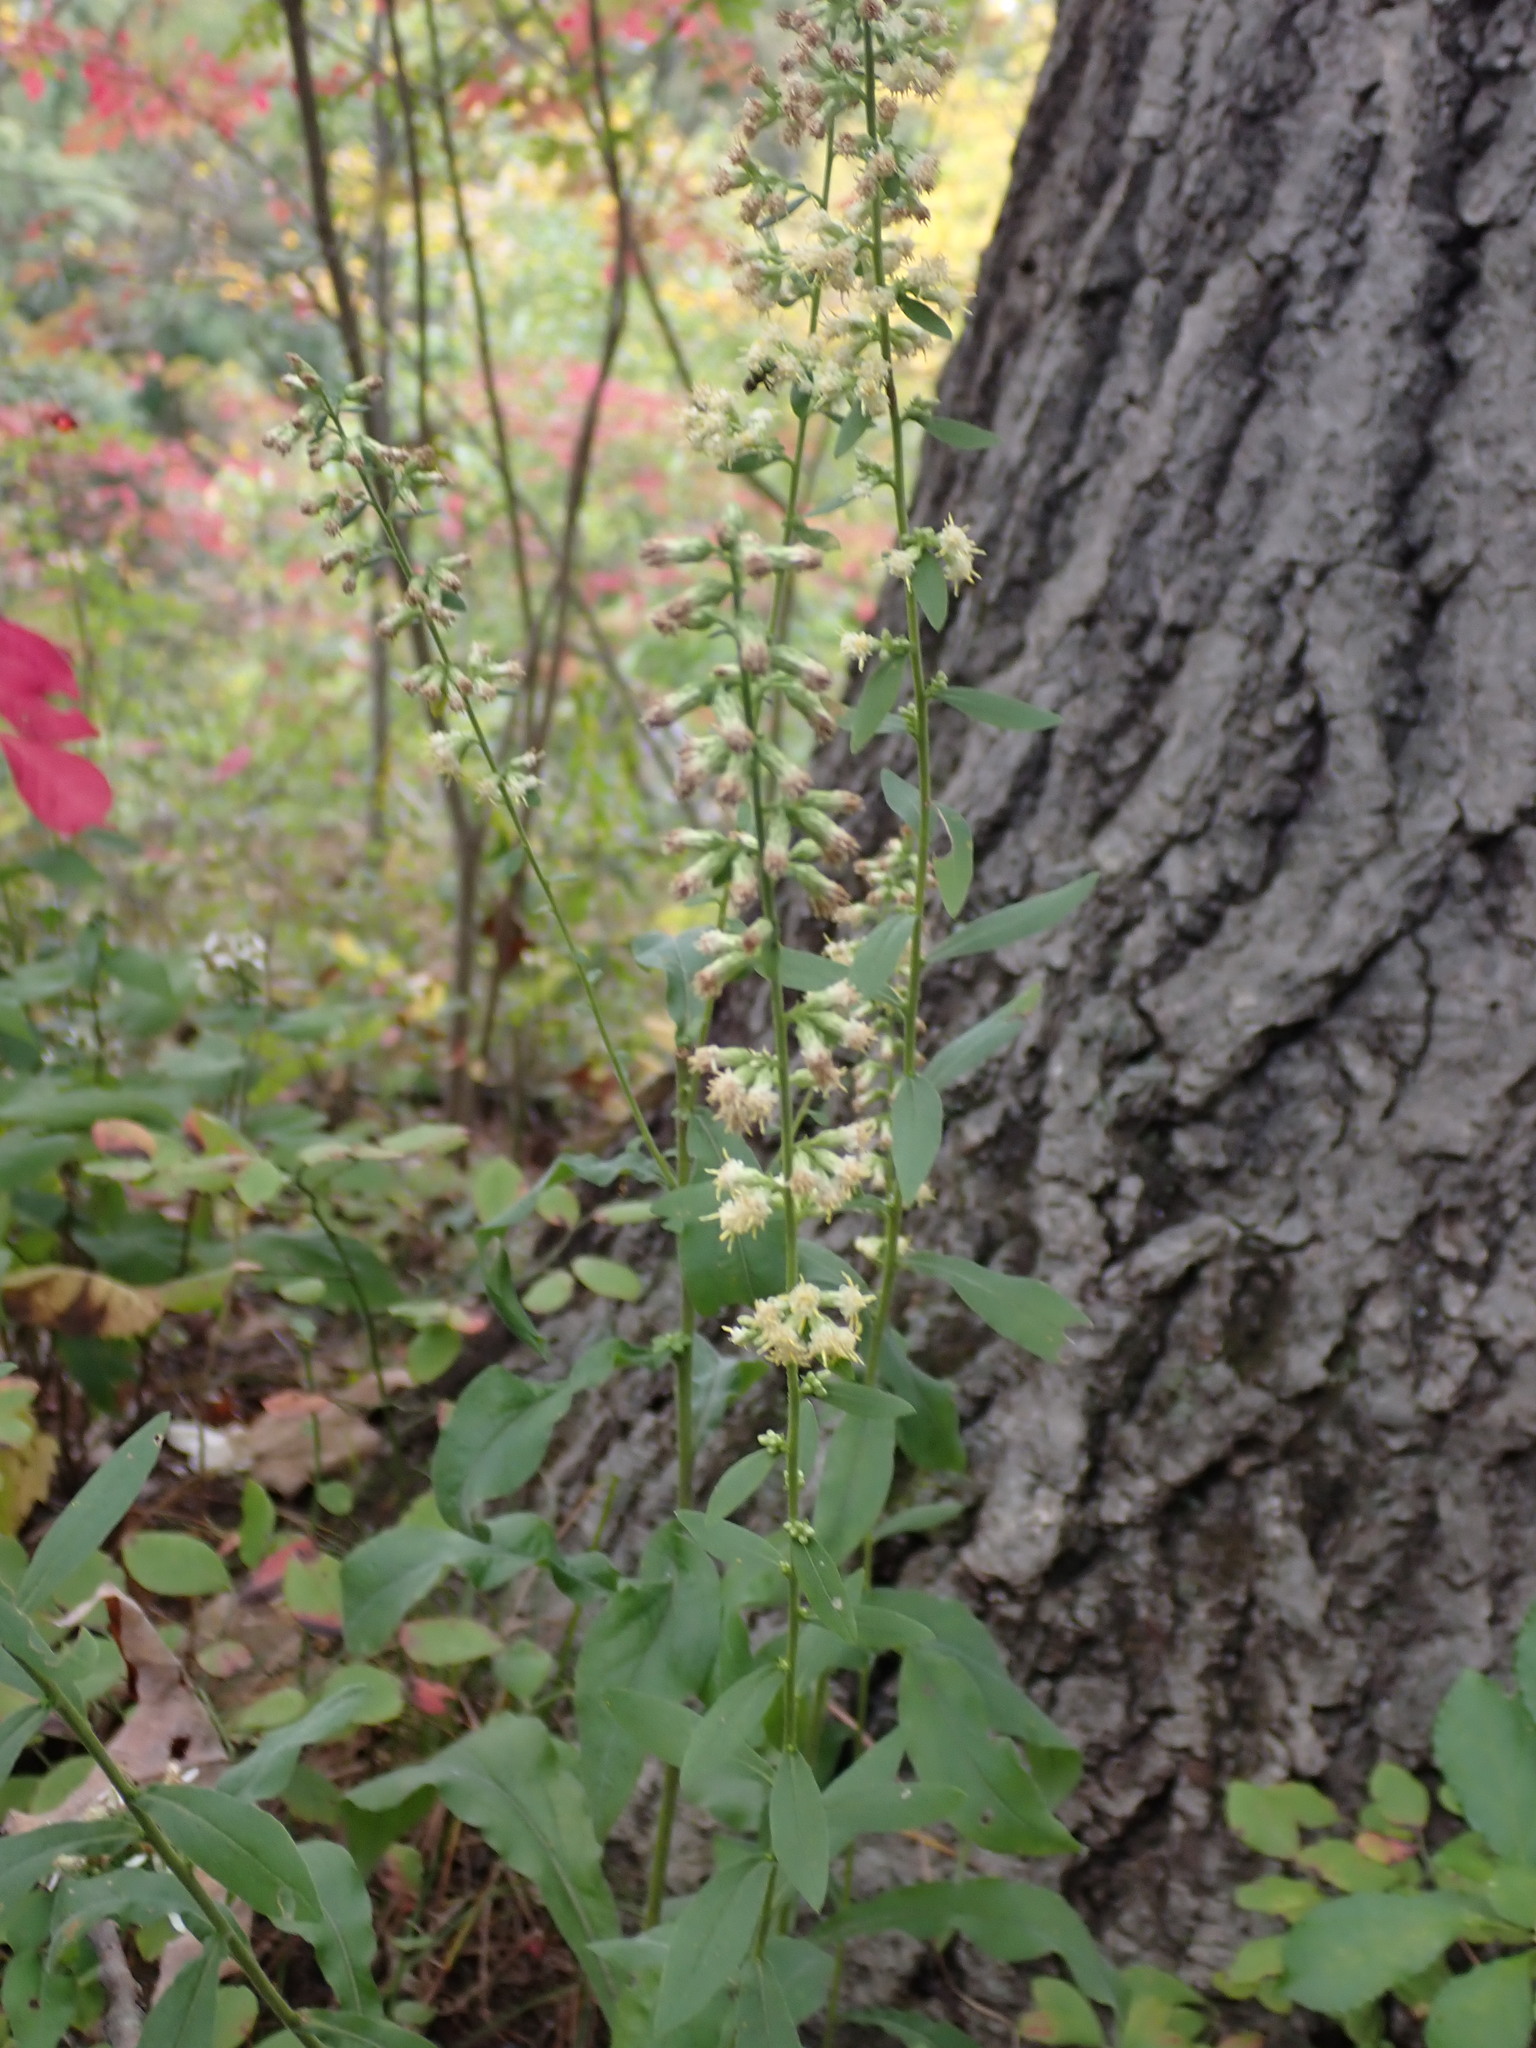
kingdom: Plantae
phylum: Tracheophyta
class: Magnoliopsida
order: Asterales
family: Asteraceae
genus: Solidago
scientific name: Solidago bicolor
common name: Silverrod
